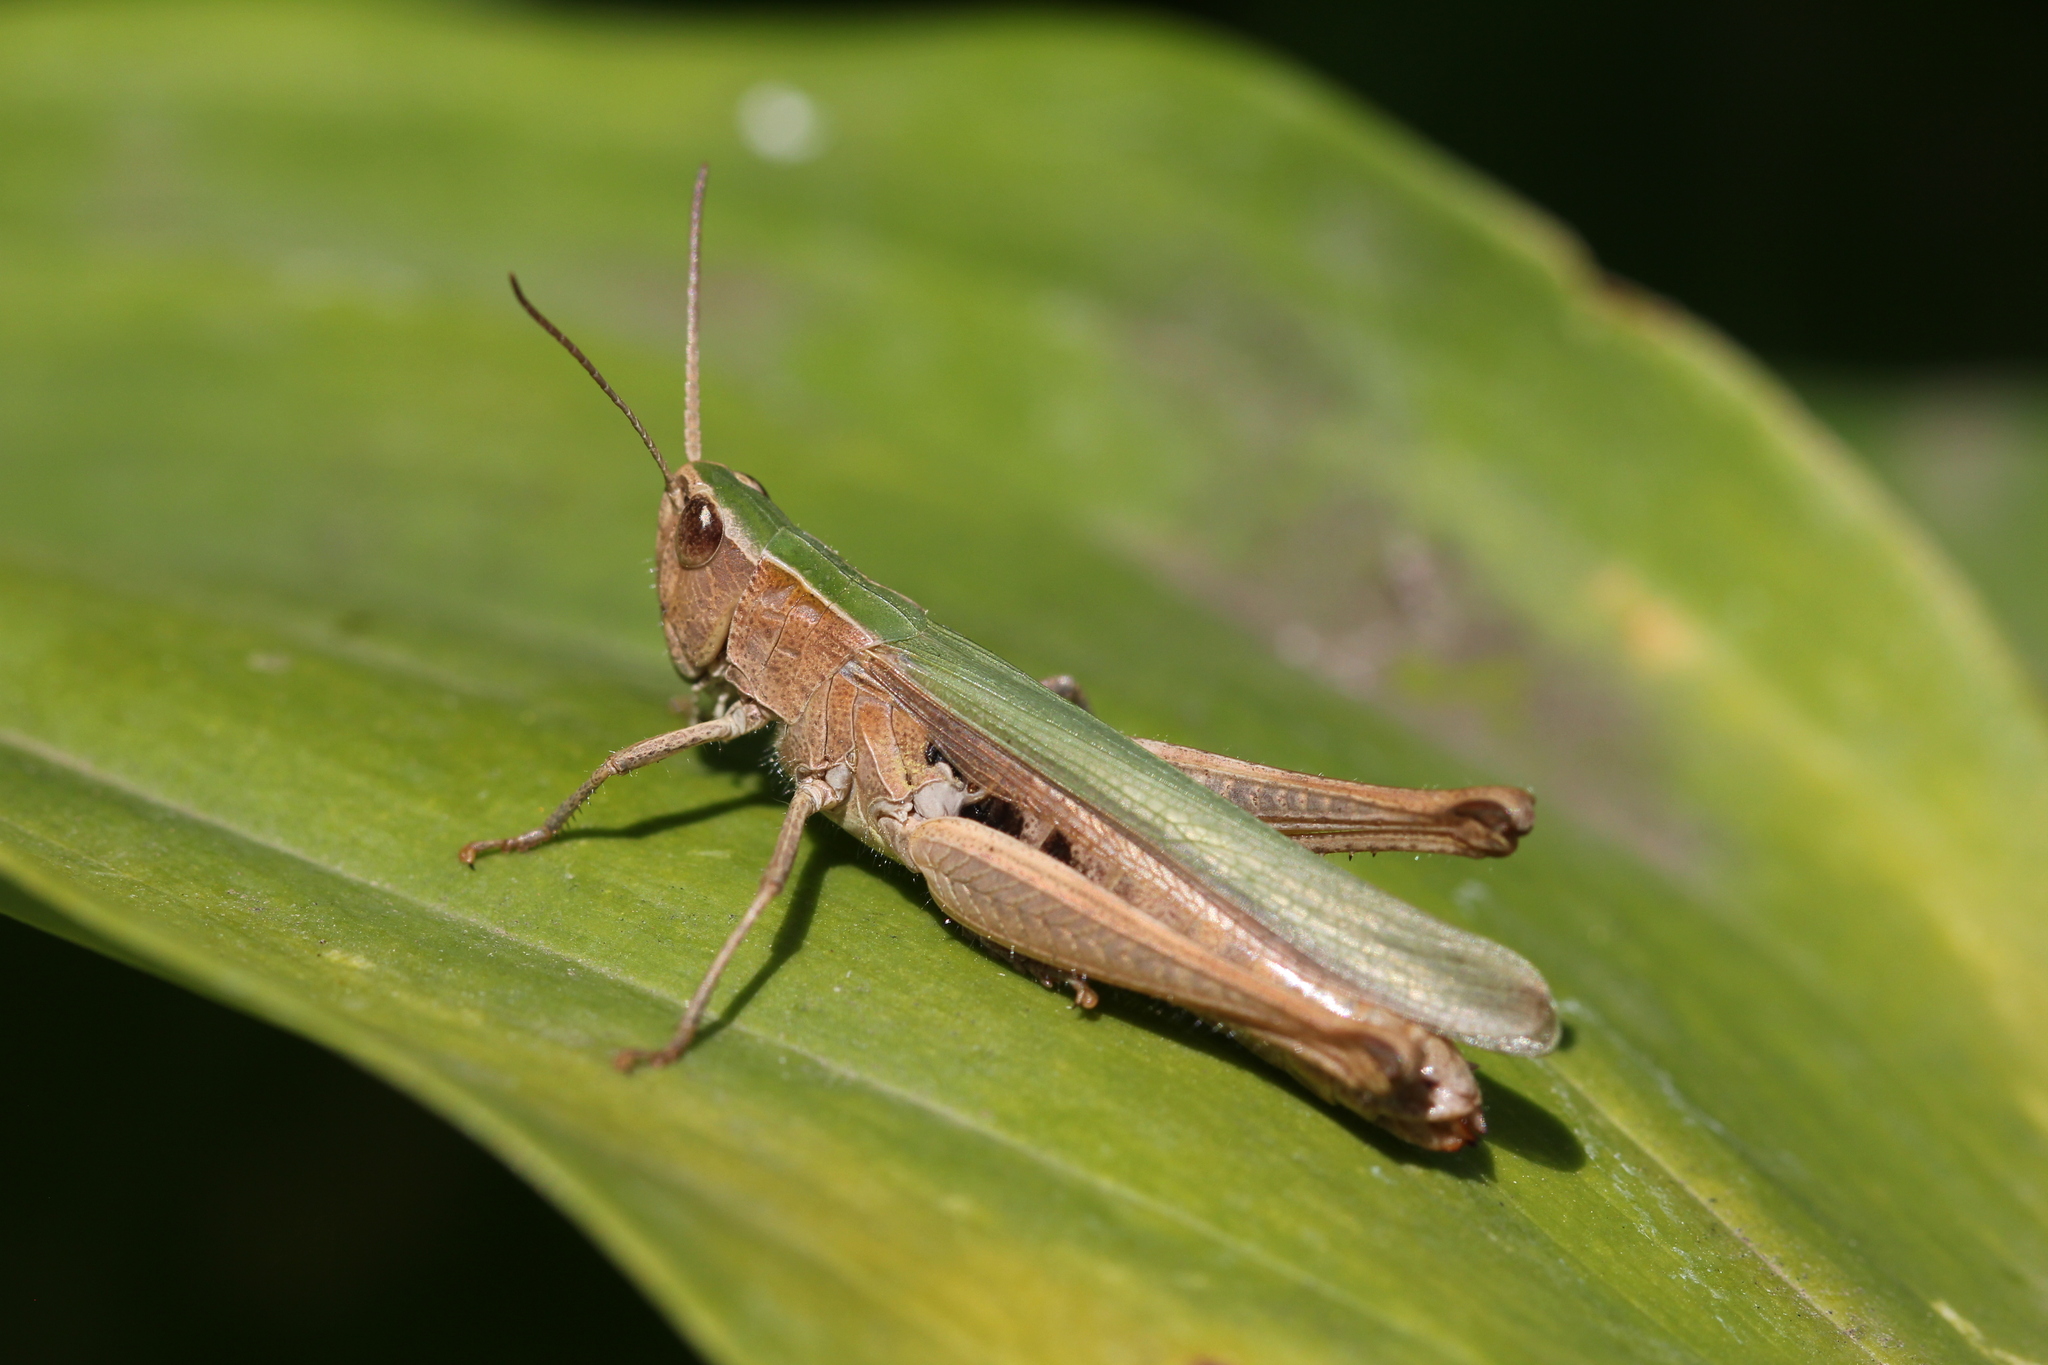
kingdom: Animalia
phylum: Arthropoda
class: Insecta
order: Orthoptera
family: Acrididae
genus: Chorthippus
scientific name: Chorthippus dichrous
